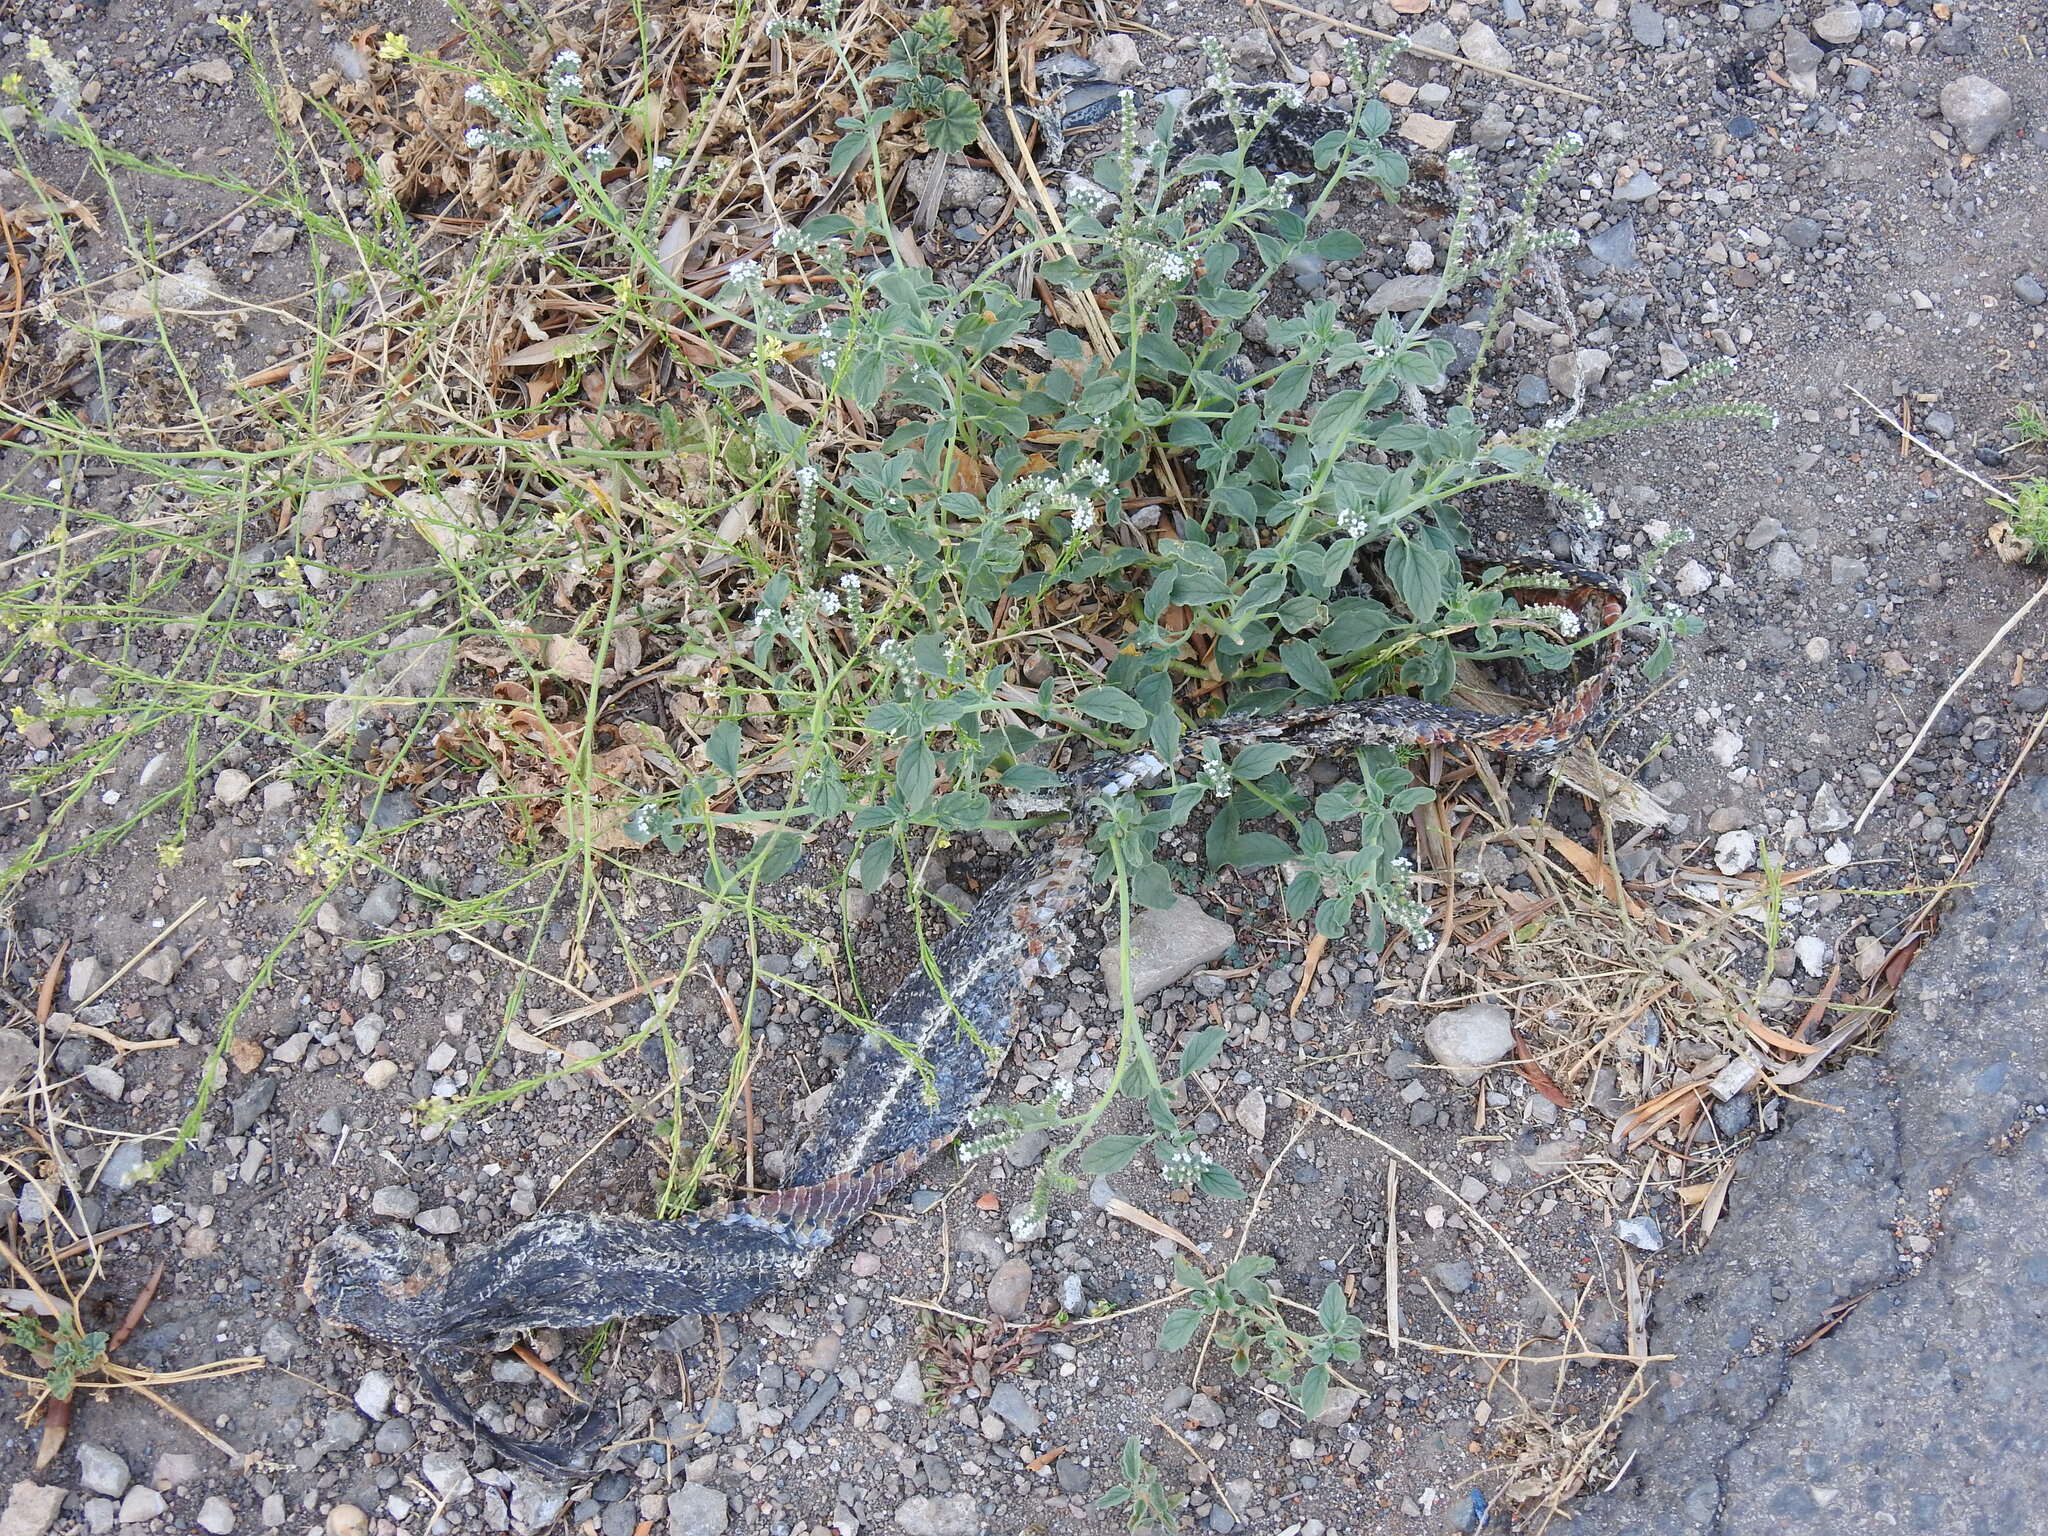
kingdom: Animalia
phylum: Chordata
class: Squamata
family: Colubridae
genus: Hemorrhois
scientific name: Hemorrhois hippocrepis
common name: Horseshoe whip snake
